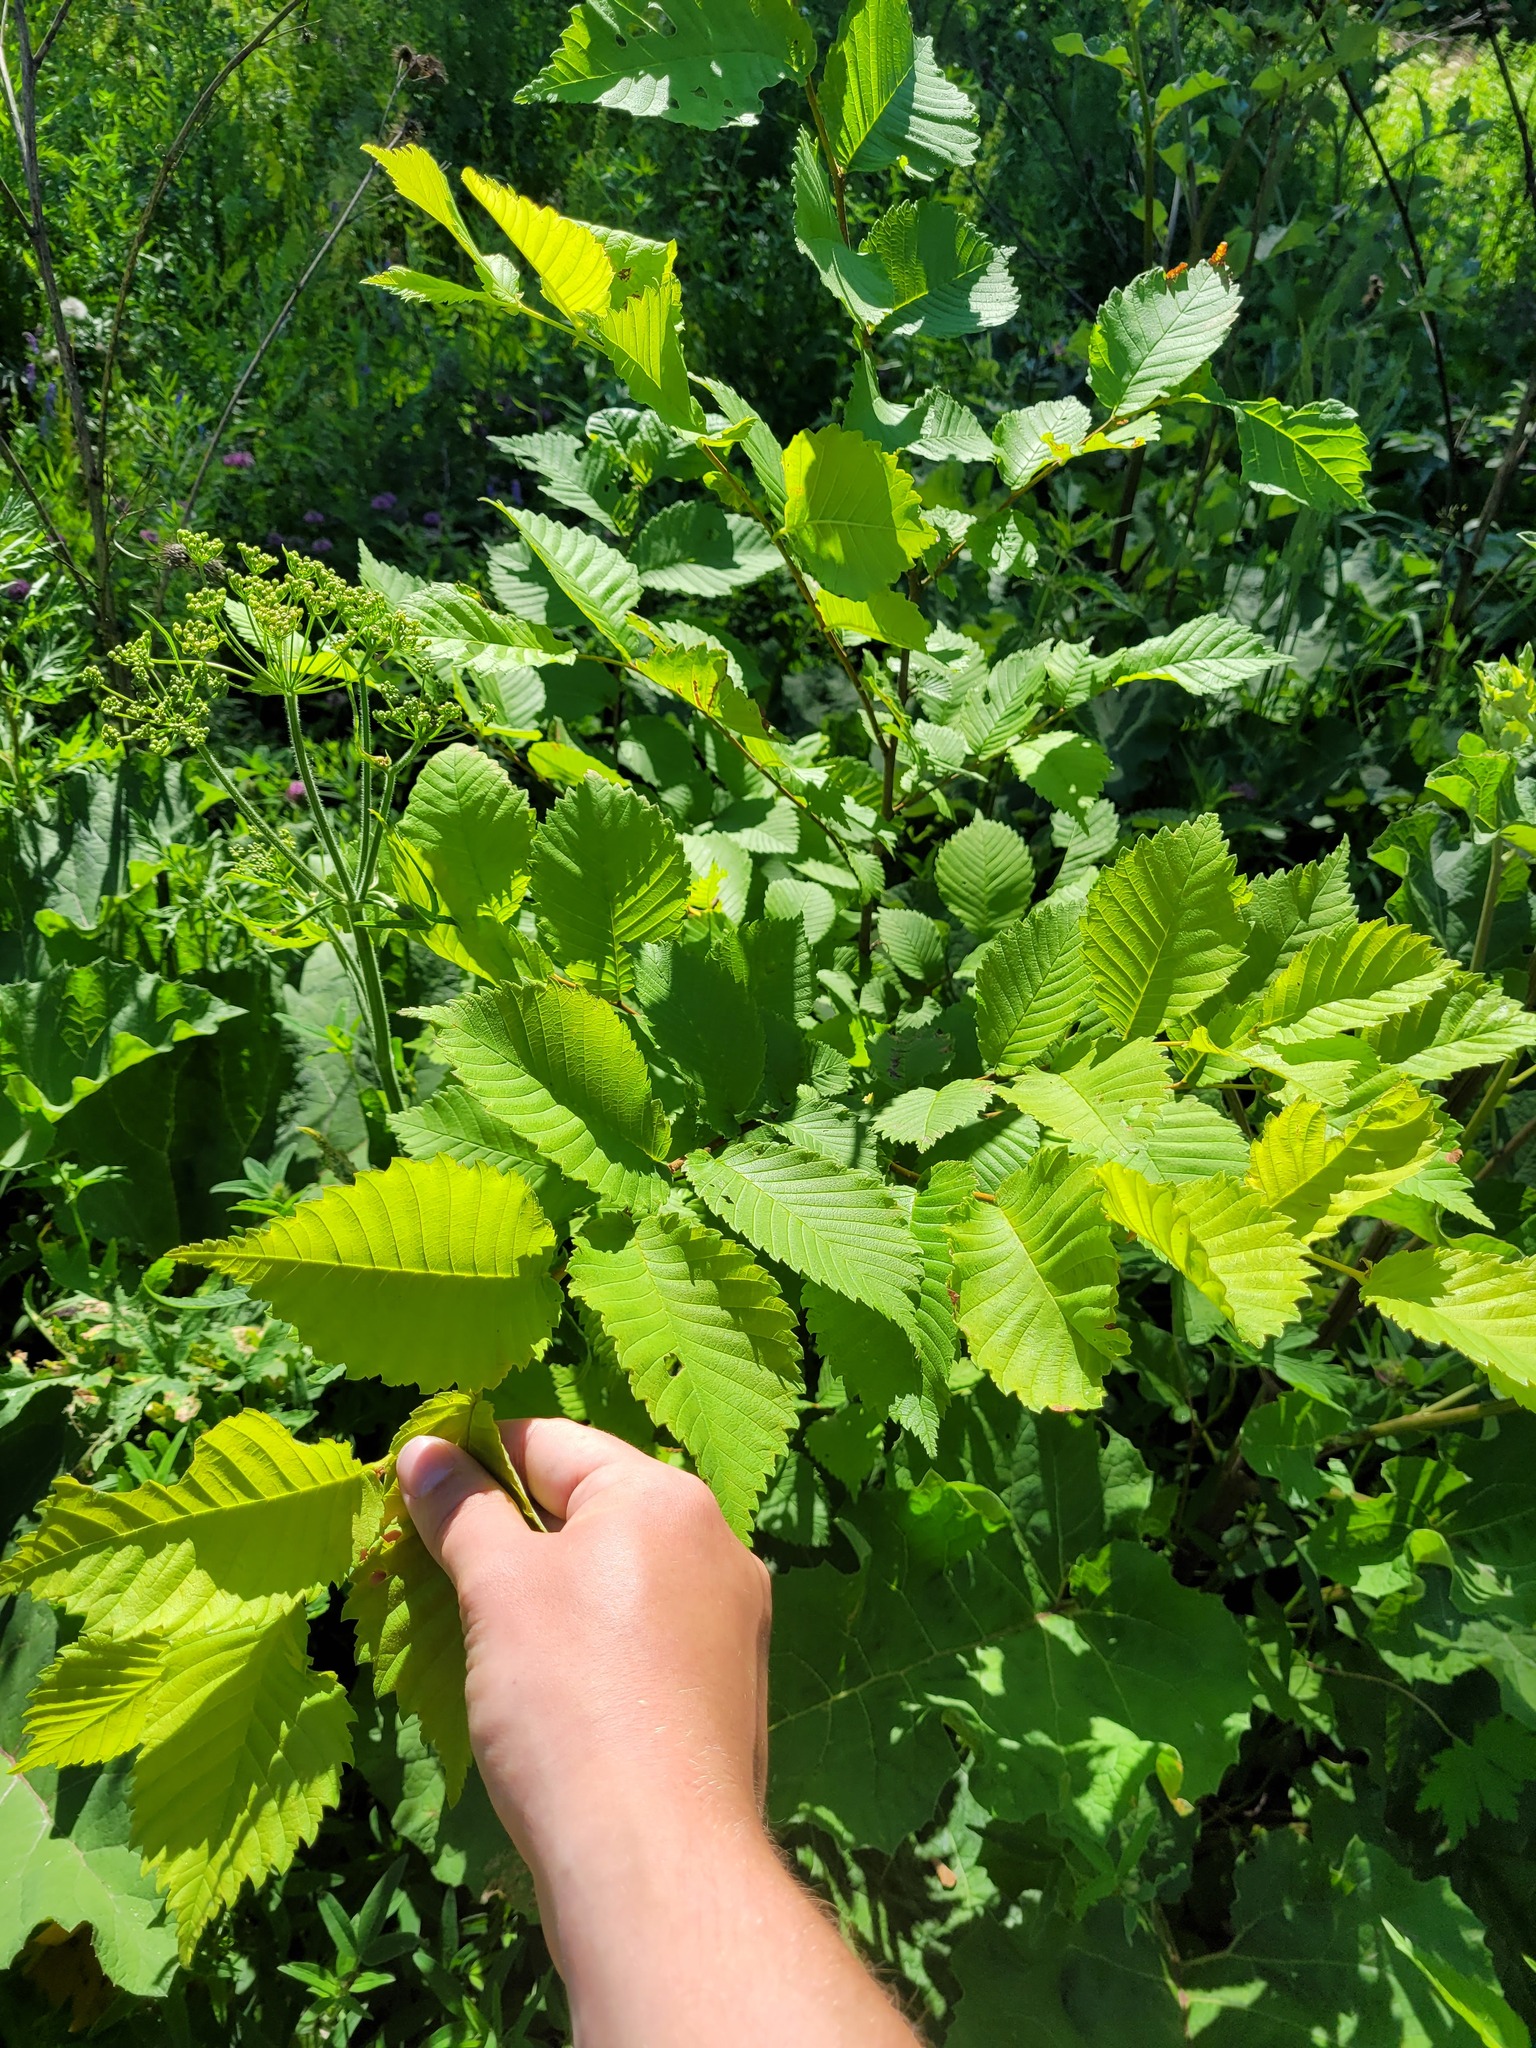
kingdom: Plantae
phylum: Tracheophyta
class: Magnoliopsida
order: Rosales
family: Ulmaceae
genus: Ulmus
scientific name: Ulmus laevis
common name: European white-elm
